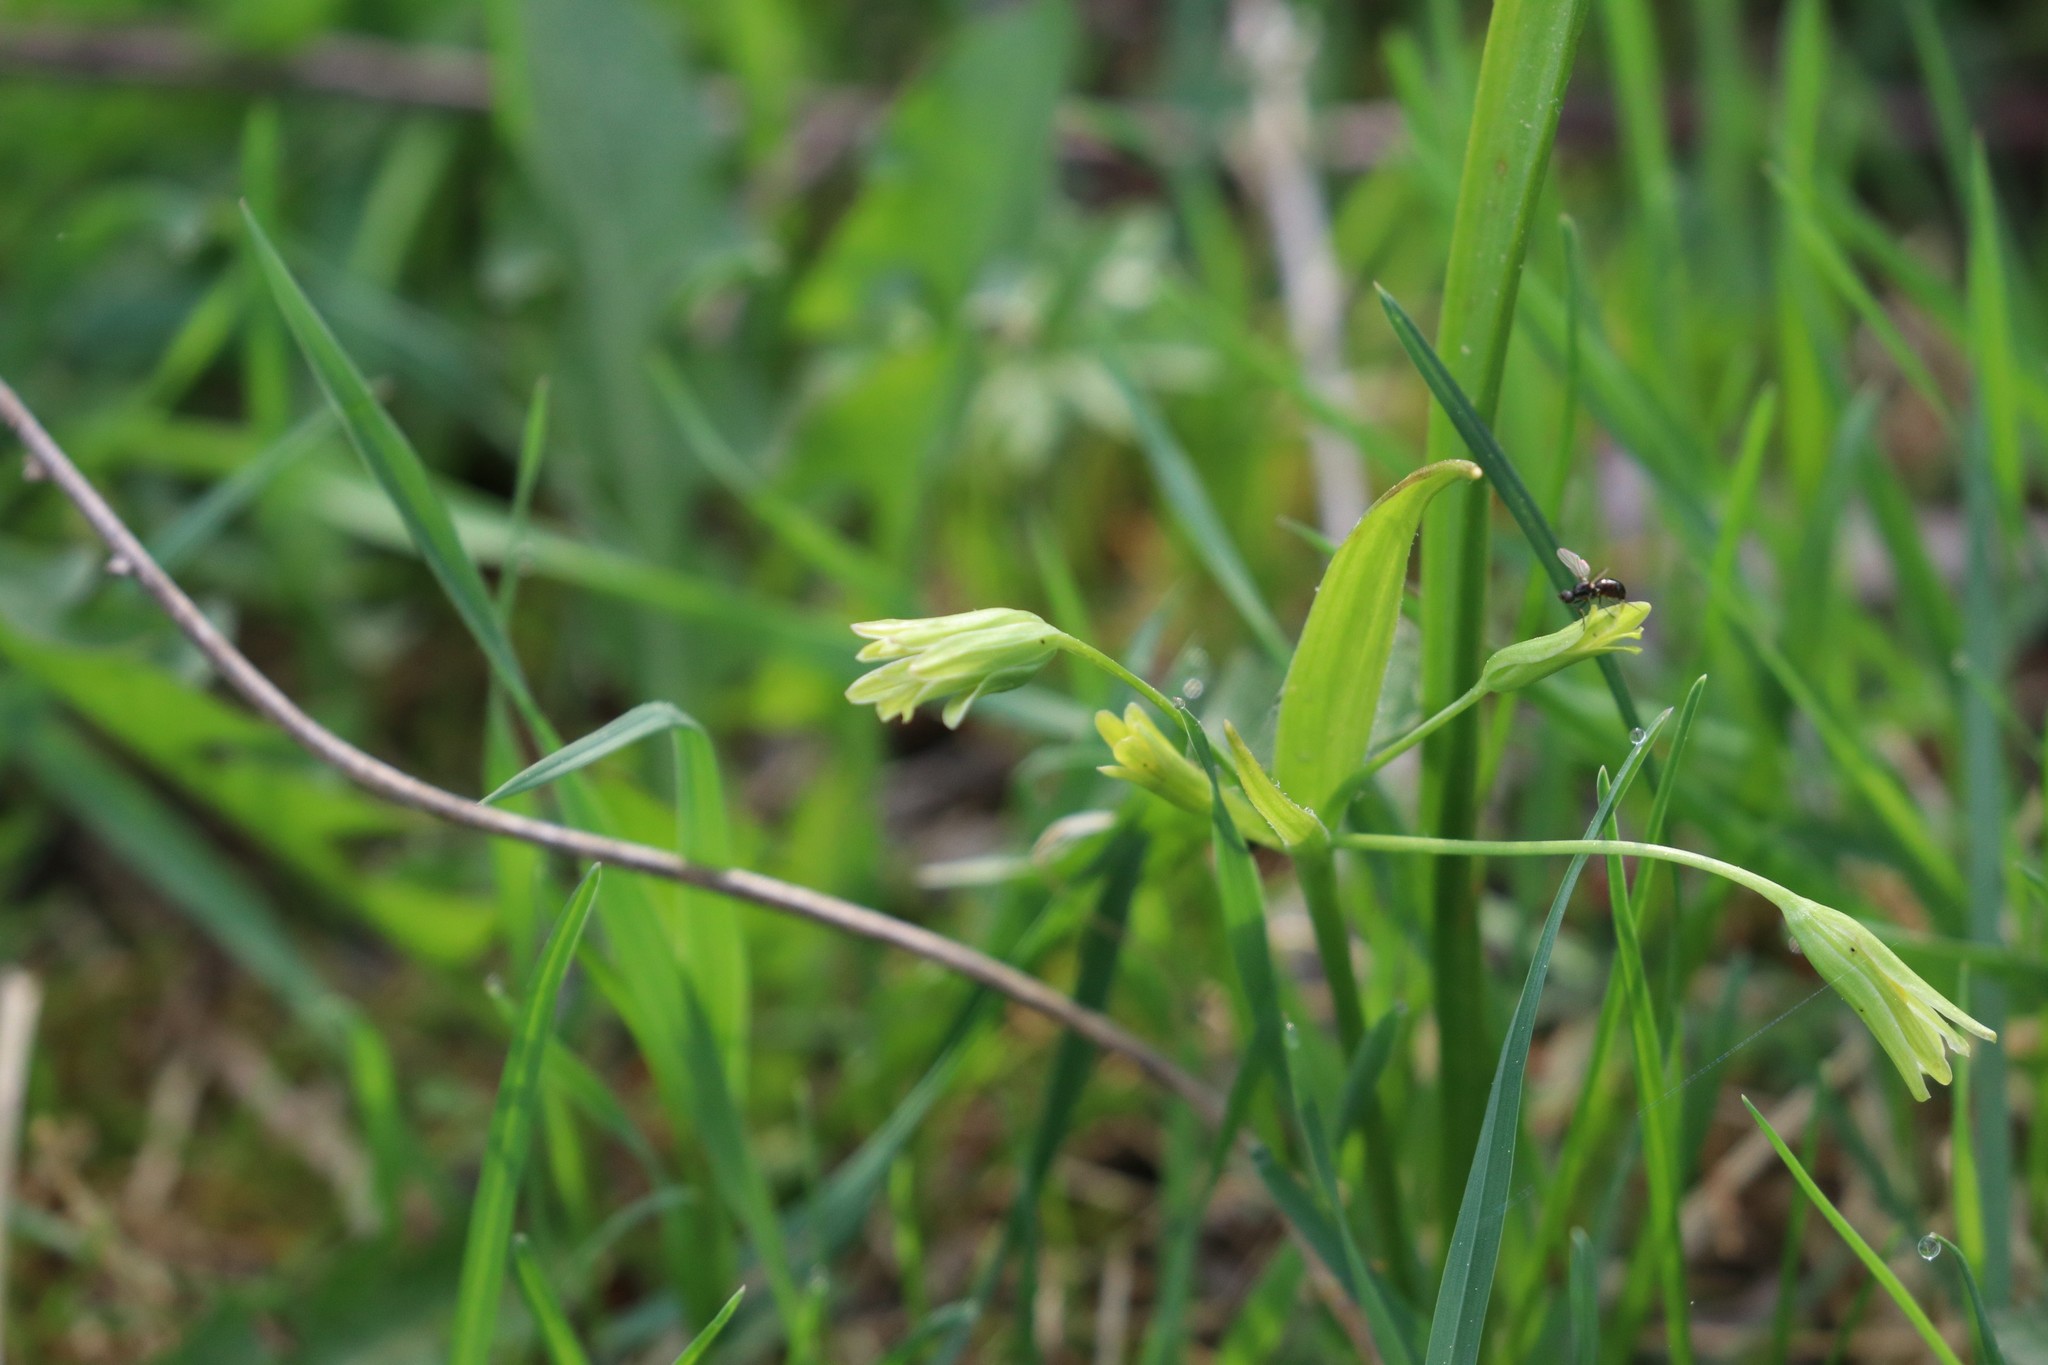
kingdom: Plantae
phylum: Tracheophyta
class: Liliopsida
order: Liliales
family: Liliaceae
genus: Gagea
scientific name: Gagea lutea
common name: Yellow star-of-bethlehem
